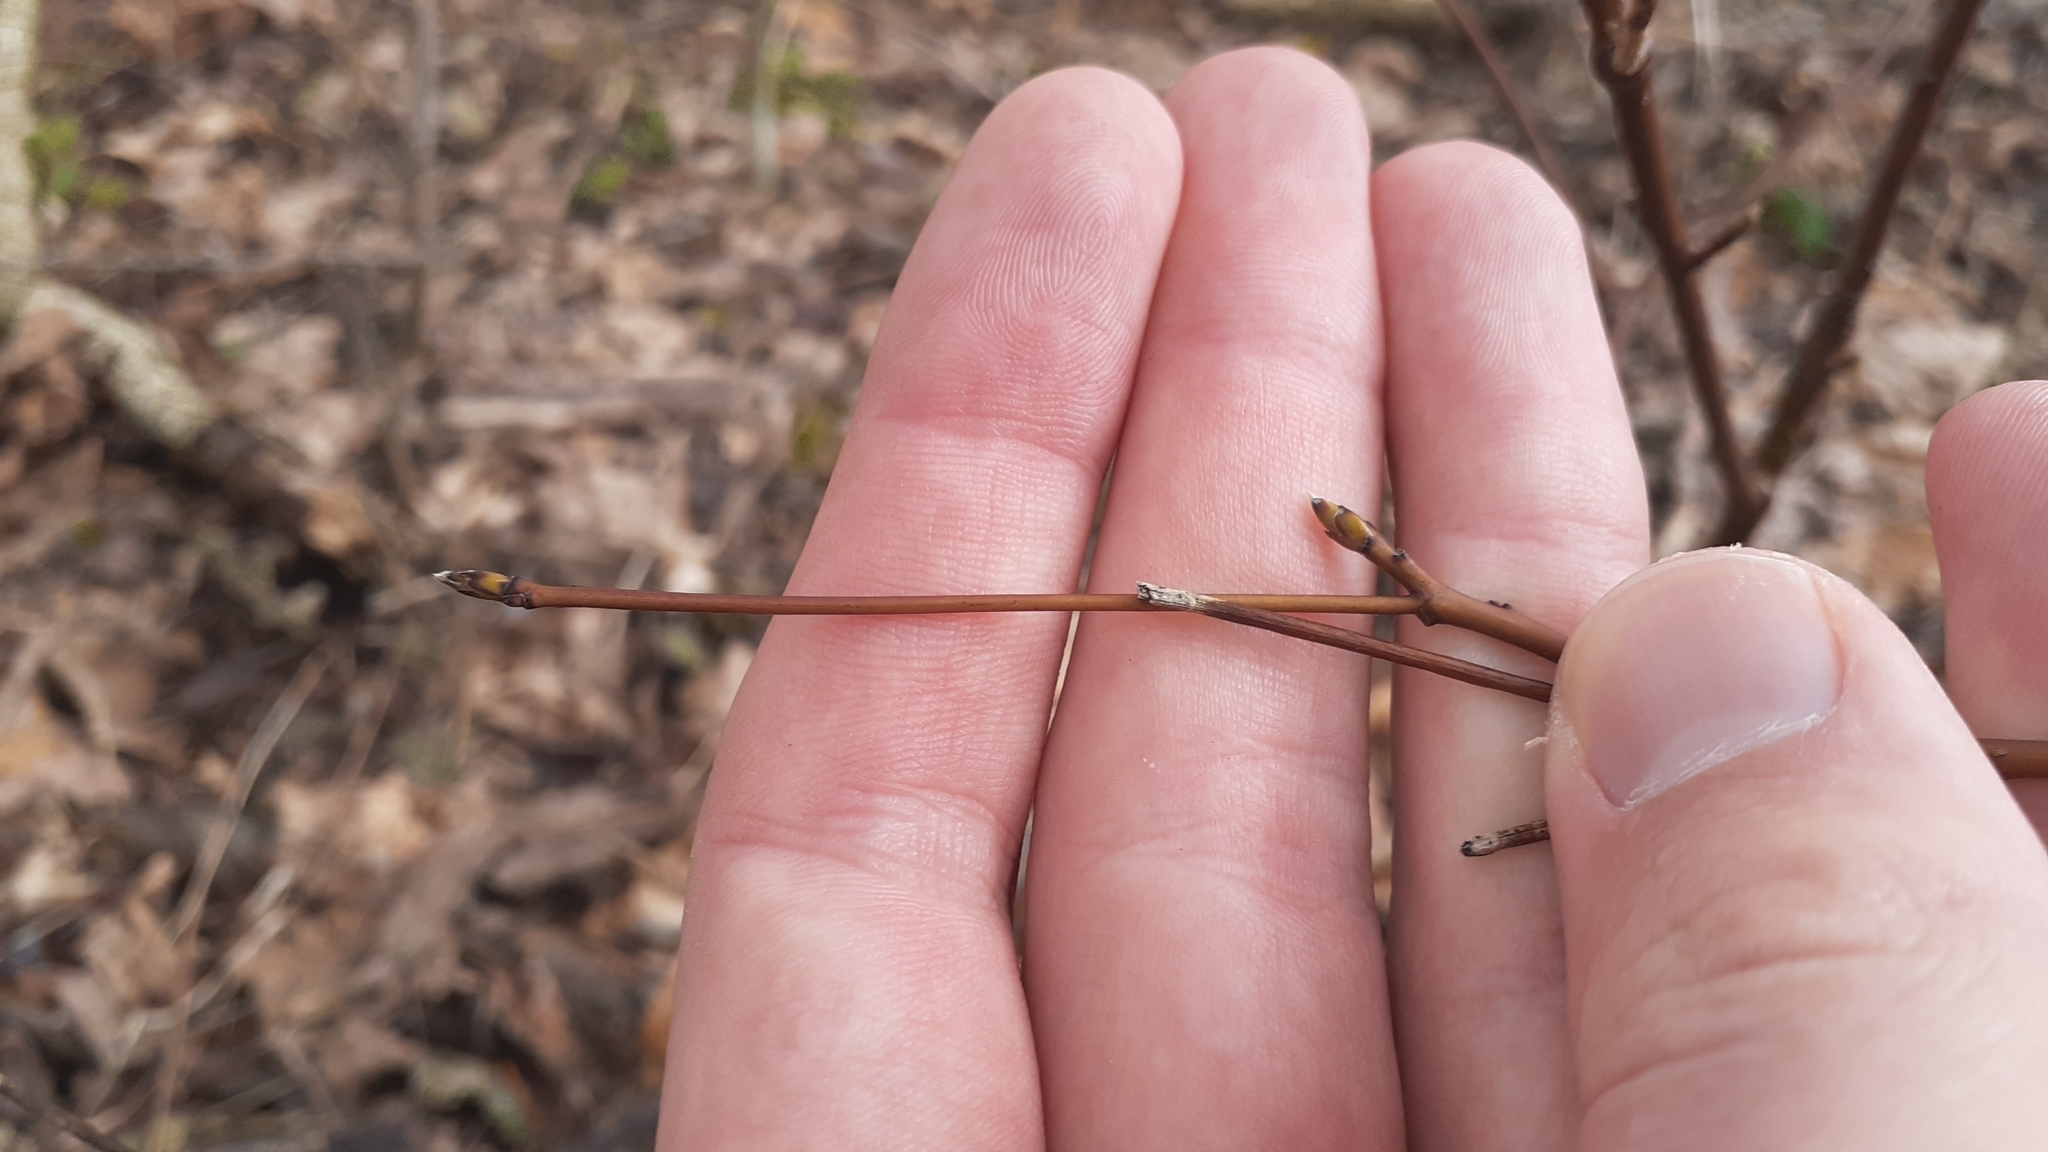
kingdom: Plantae
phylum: Tracheophyta
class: Magnoliopsida
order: Cornales
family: Cornaceae
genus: Cornus
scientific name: Cornus alternifolia
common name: Pagoda dogwood
